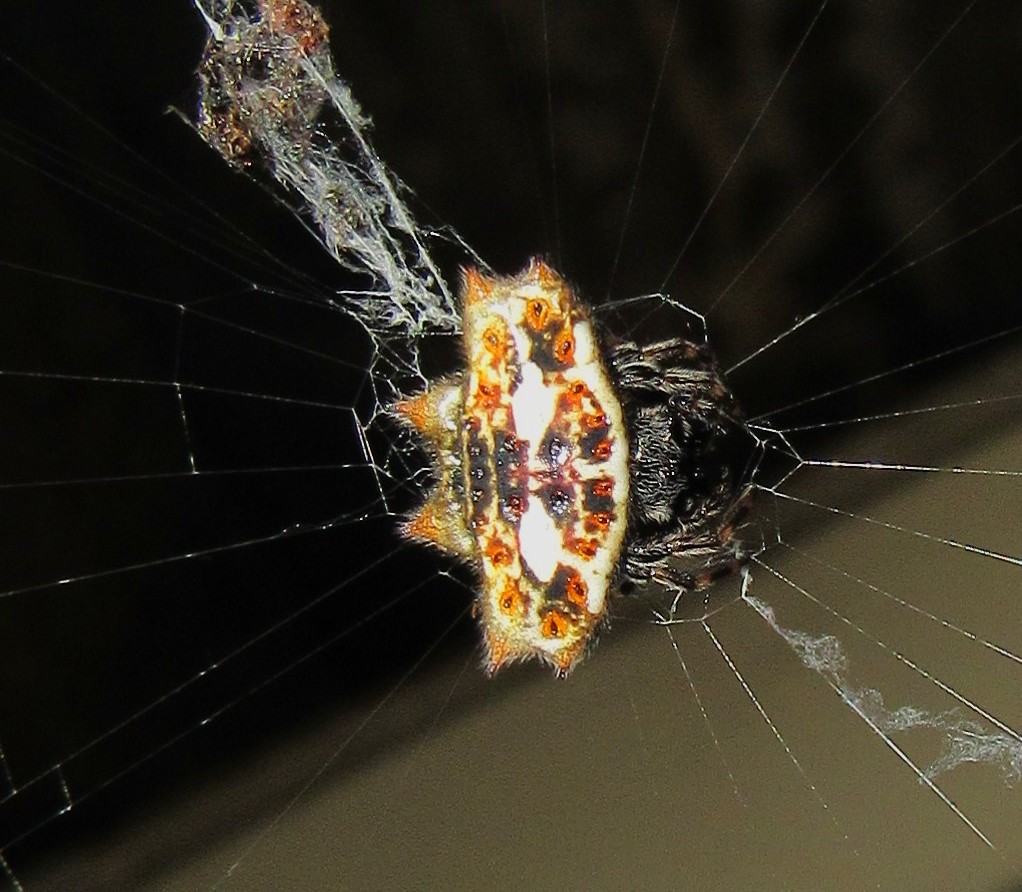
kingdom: Animalia
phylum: Arthropoda
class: Arachnida
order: Araneae
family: Araneidae
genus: Gasteracantha
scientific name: Gasteracantha cancriformis
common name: Orb weavers
